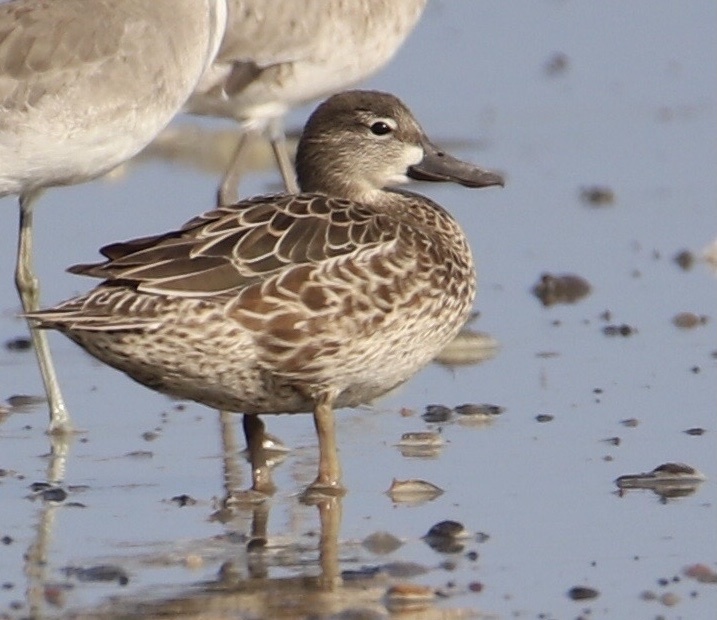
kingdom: Animalia
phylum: Chordata
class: Aves
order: Anseriformes
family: Anatidae
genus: Spatula
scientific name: Spatula discors
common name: Blue-winged teal
